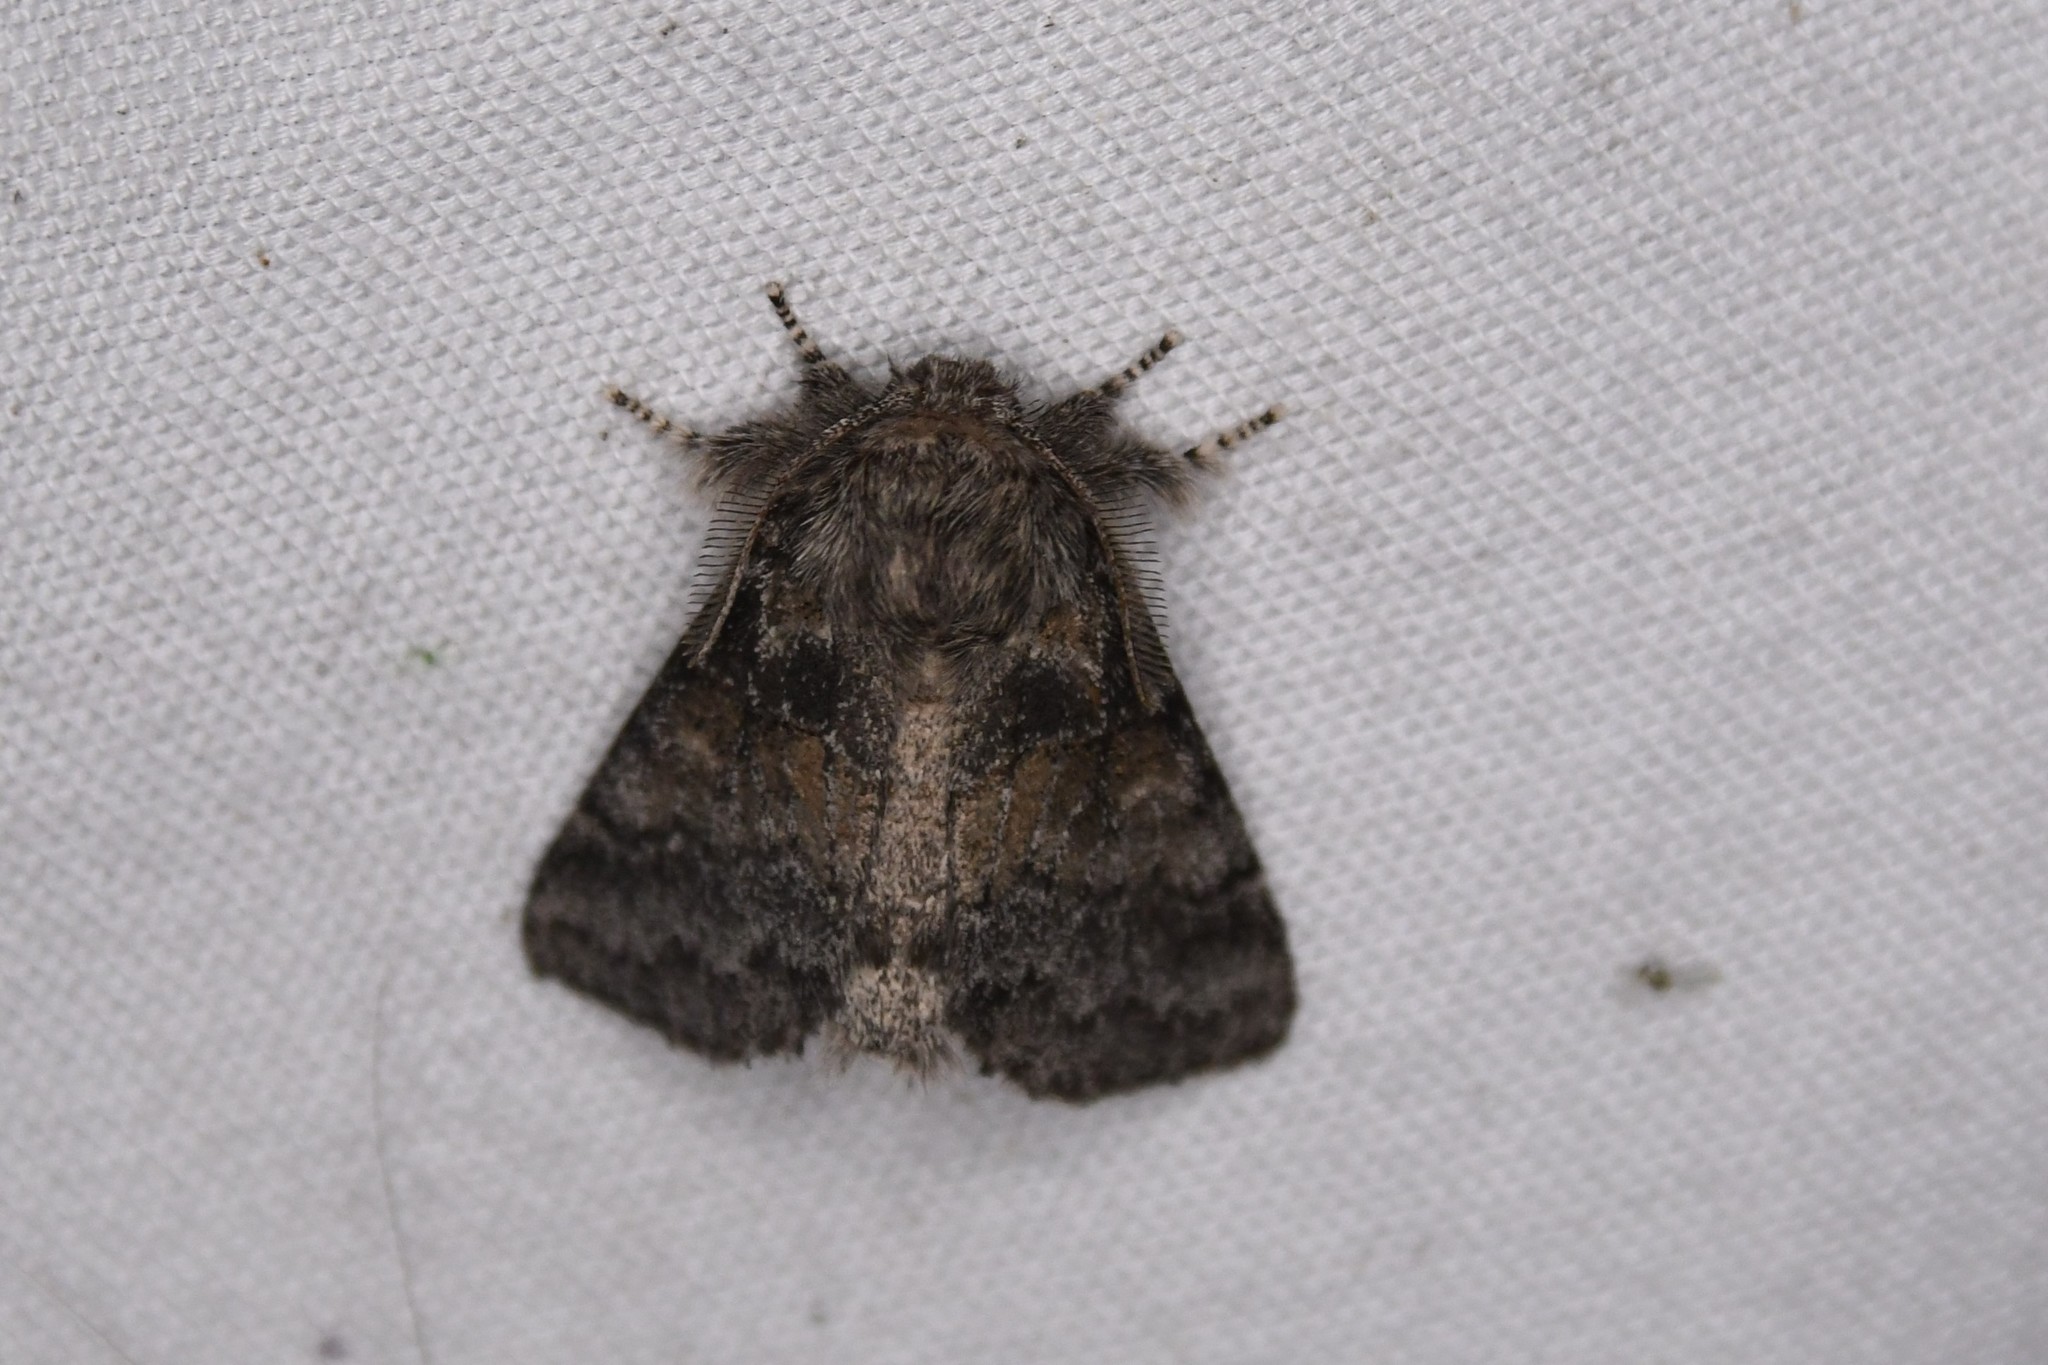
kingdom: Animalia
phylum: Arthropoda
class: Insecta
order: Lepidoptera
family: Notodontidae
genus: Gluphisia
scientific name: Gluphisia septentrionis
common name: Common gluphisia
